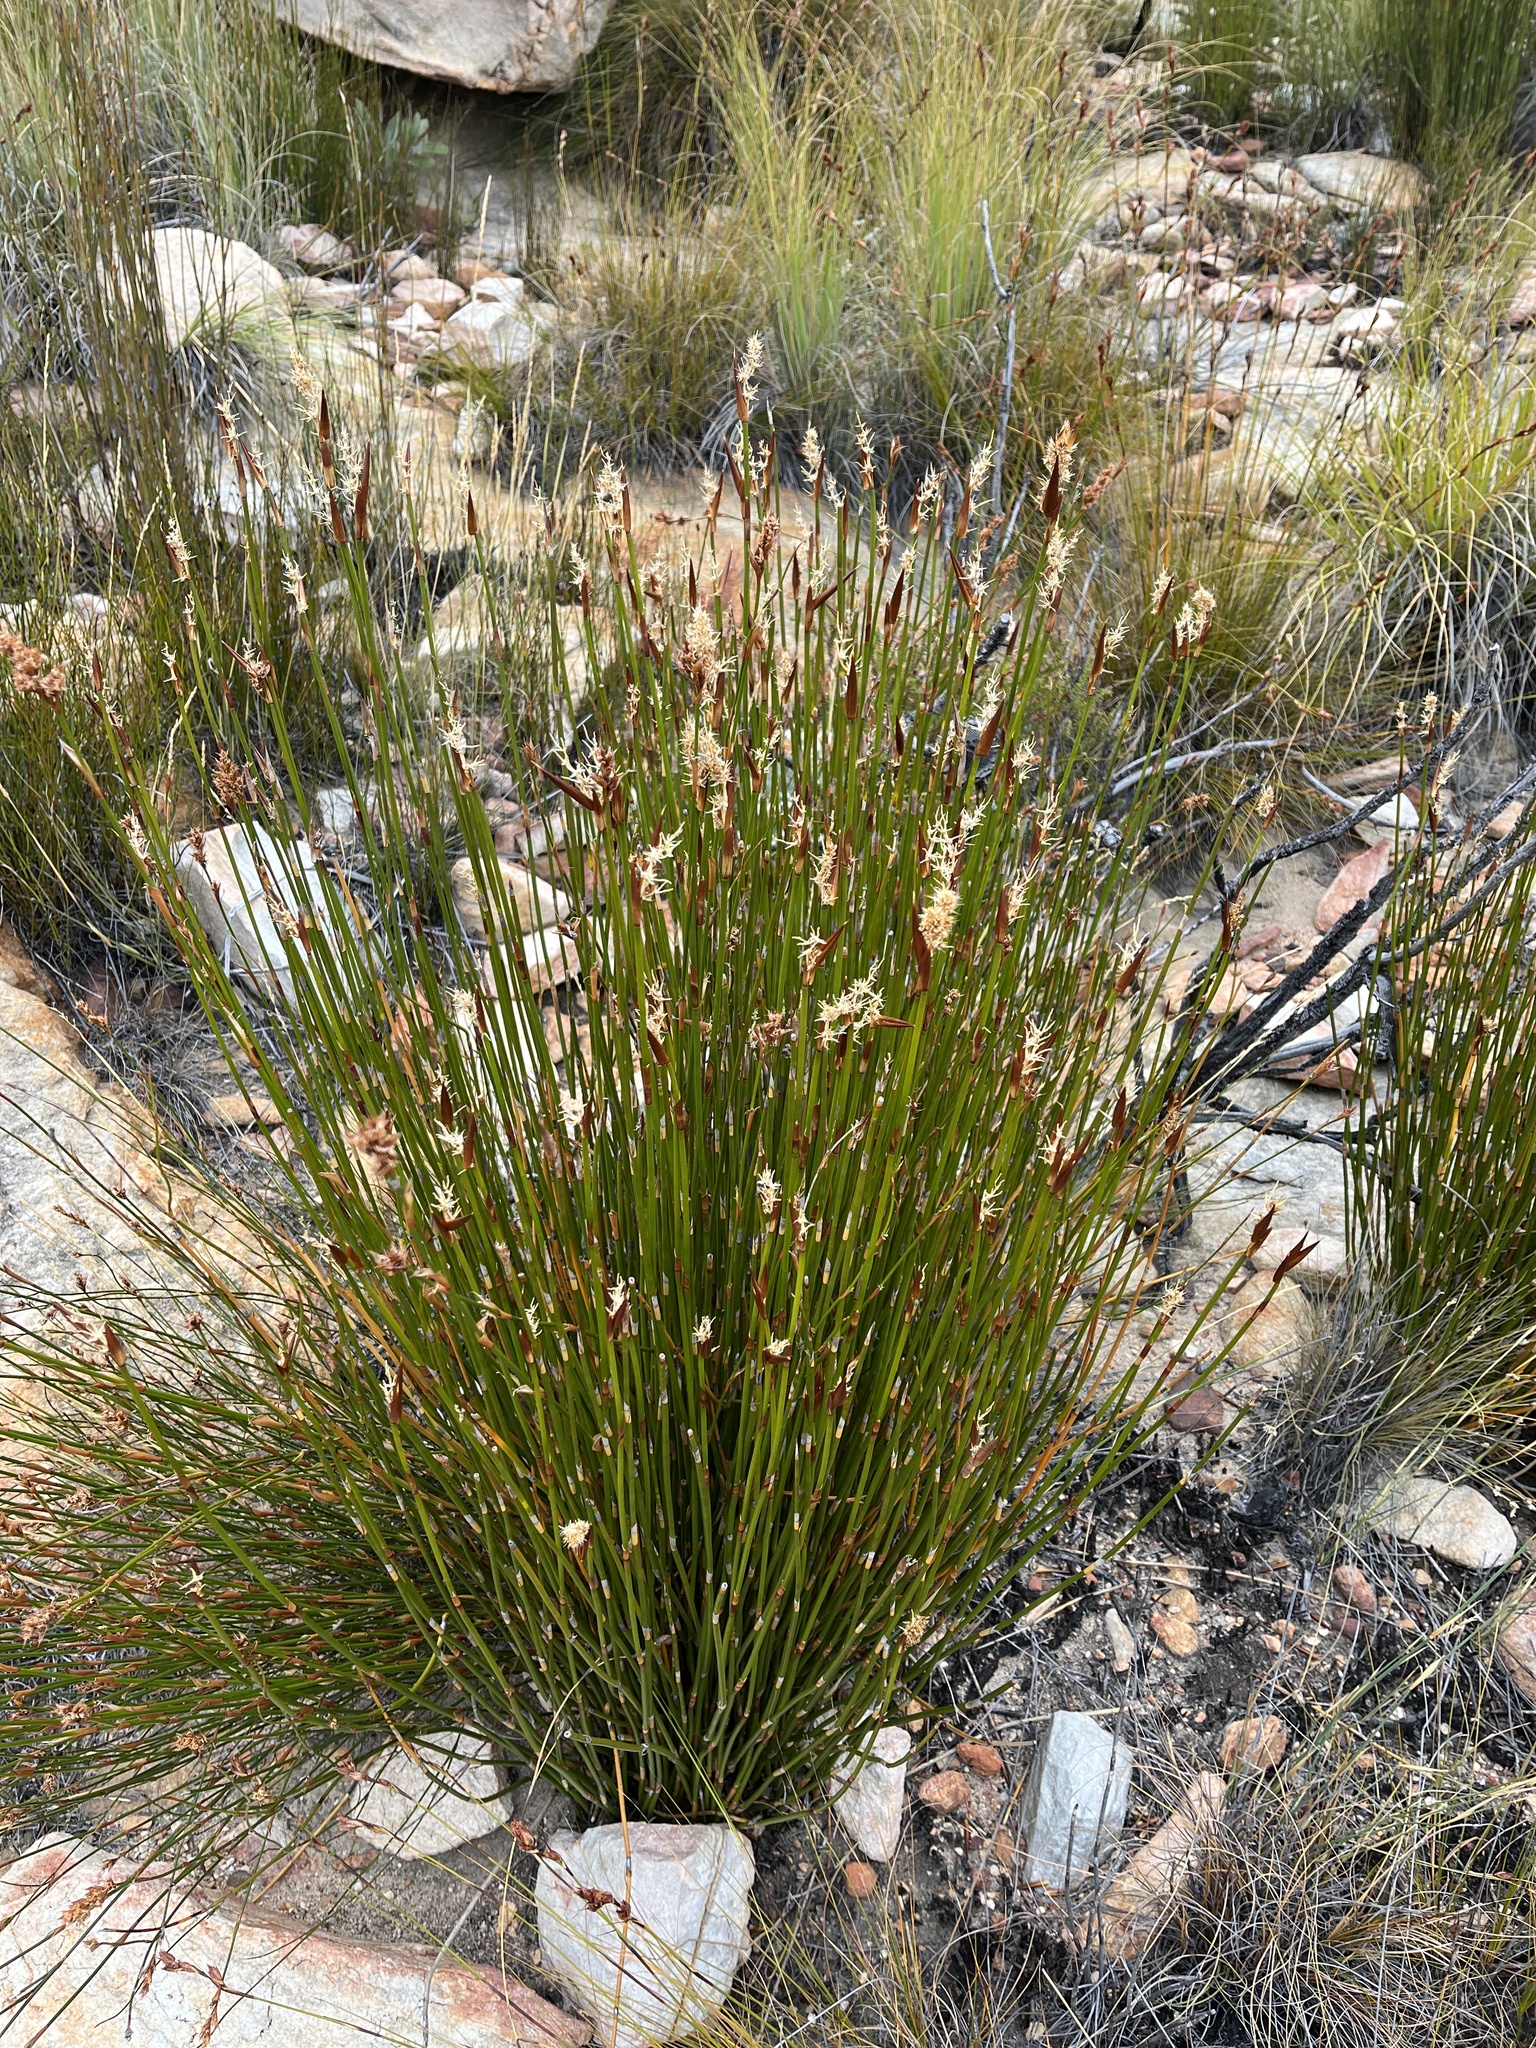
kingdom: Plantae
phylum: Tracheophyta
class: Liliopsida
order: Poales
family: Restionaceae
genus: Ceratocaryum
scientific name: Ceratocaryum xerophilum
